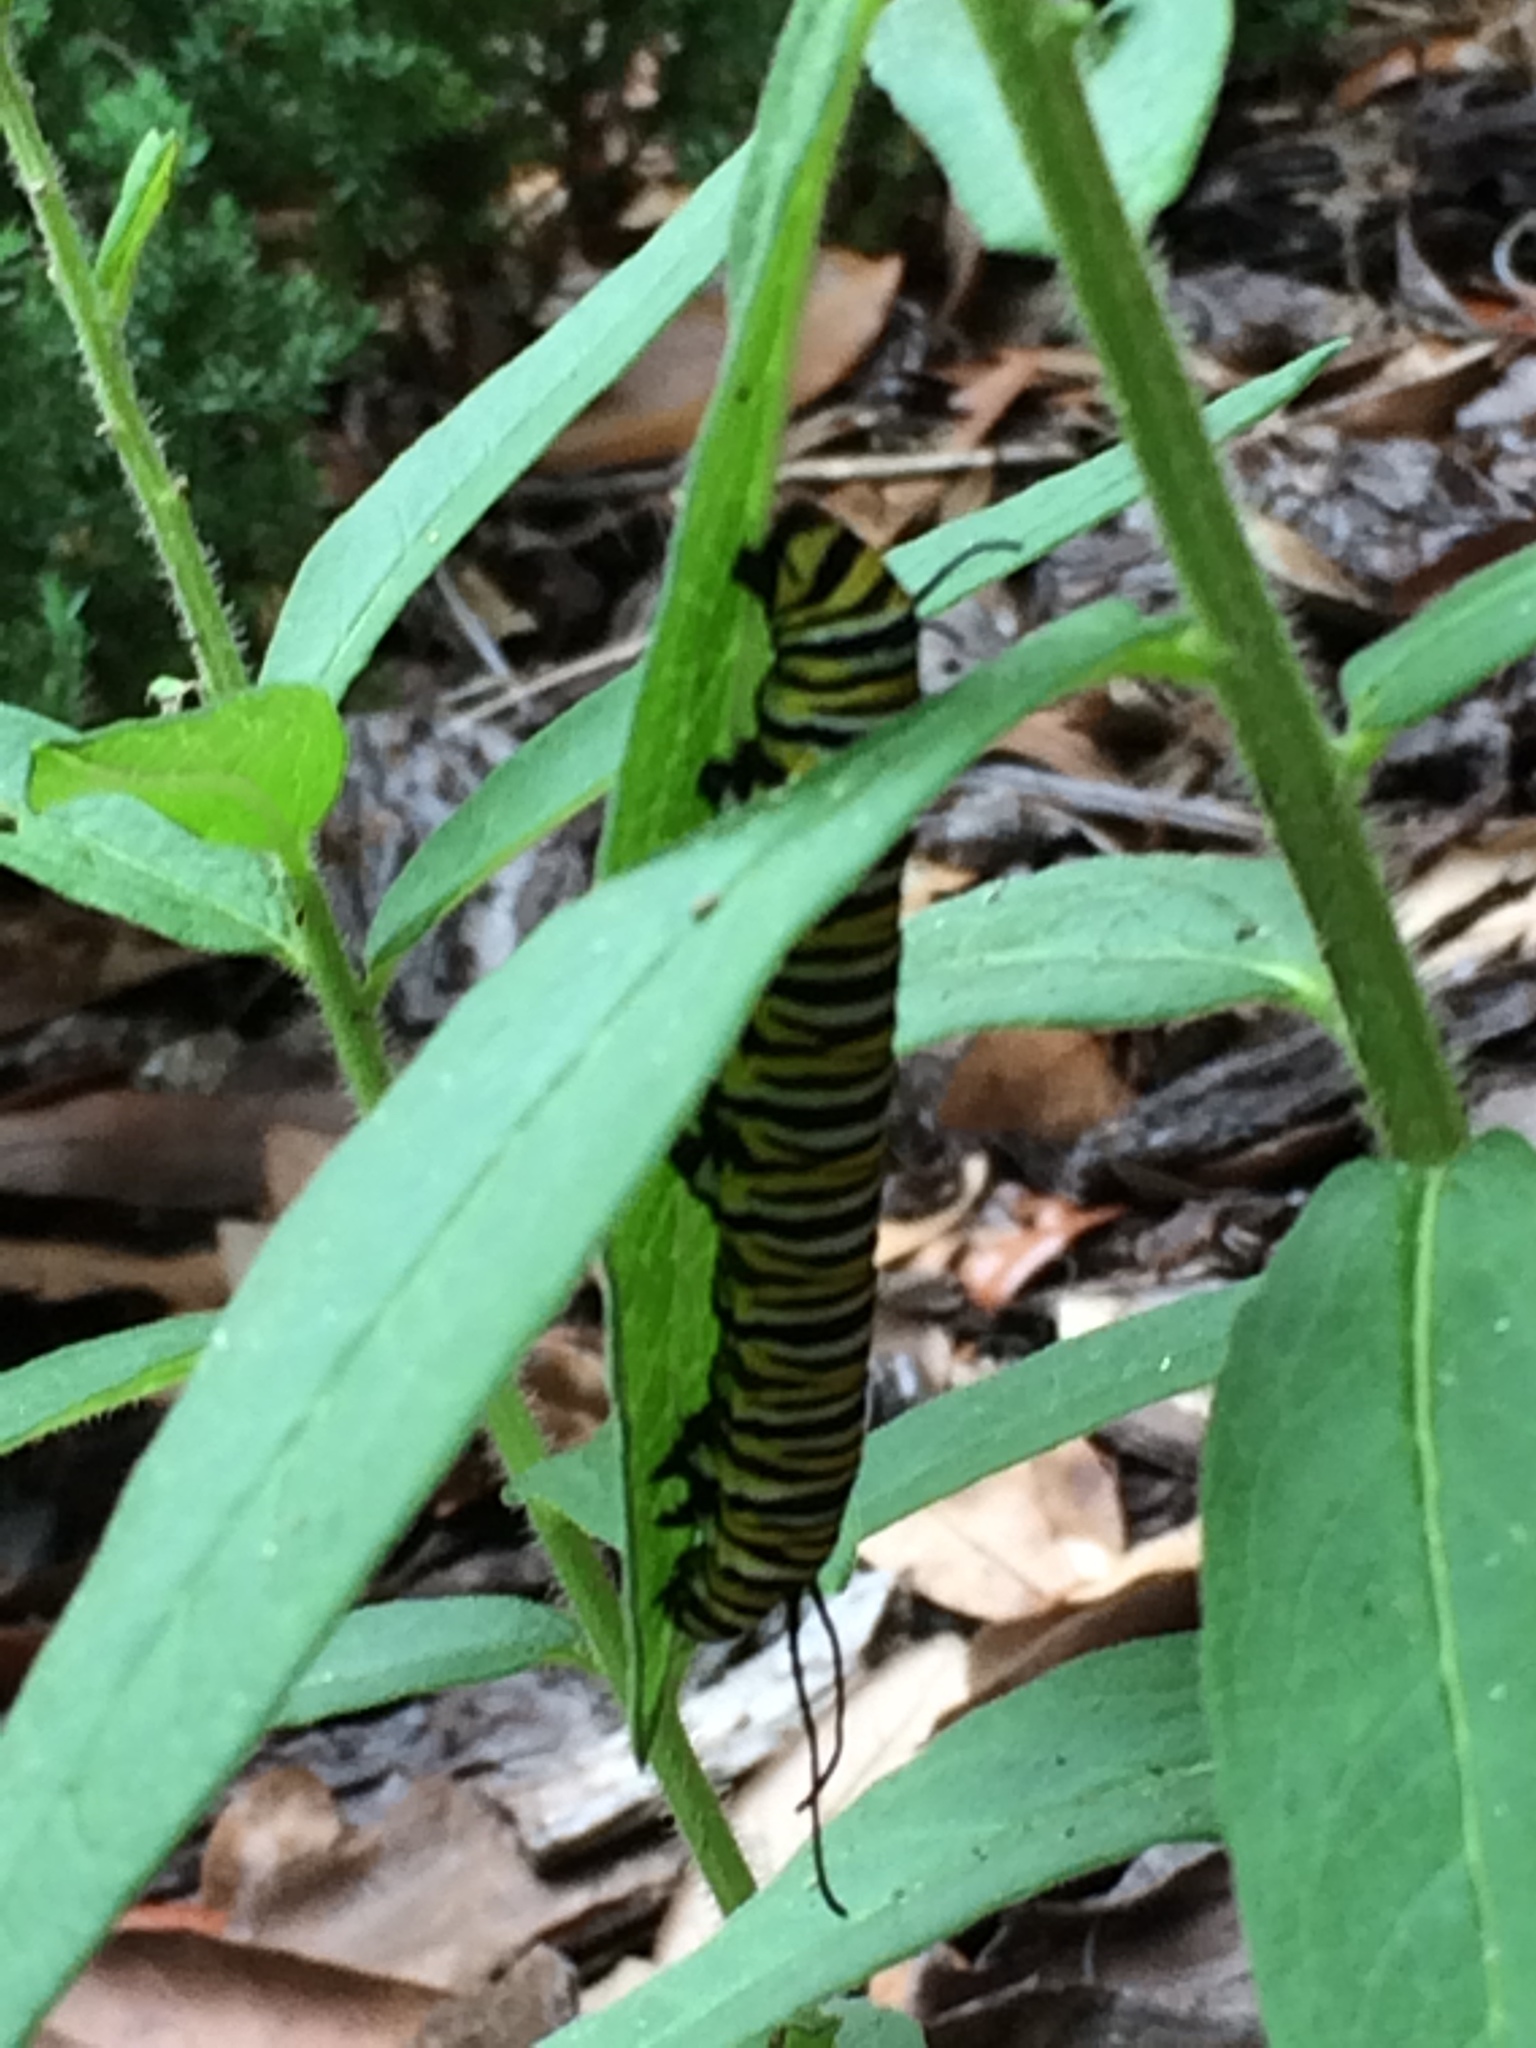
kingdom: Animalia
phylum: Arthropoda
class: Insecta
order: Lepidoptera
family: Nymphalidae
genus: Danaus
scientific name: Danaus plexippus
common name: Monarch
